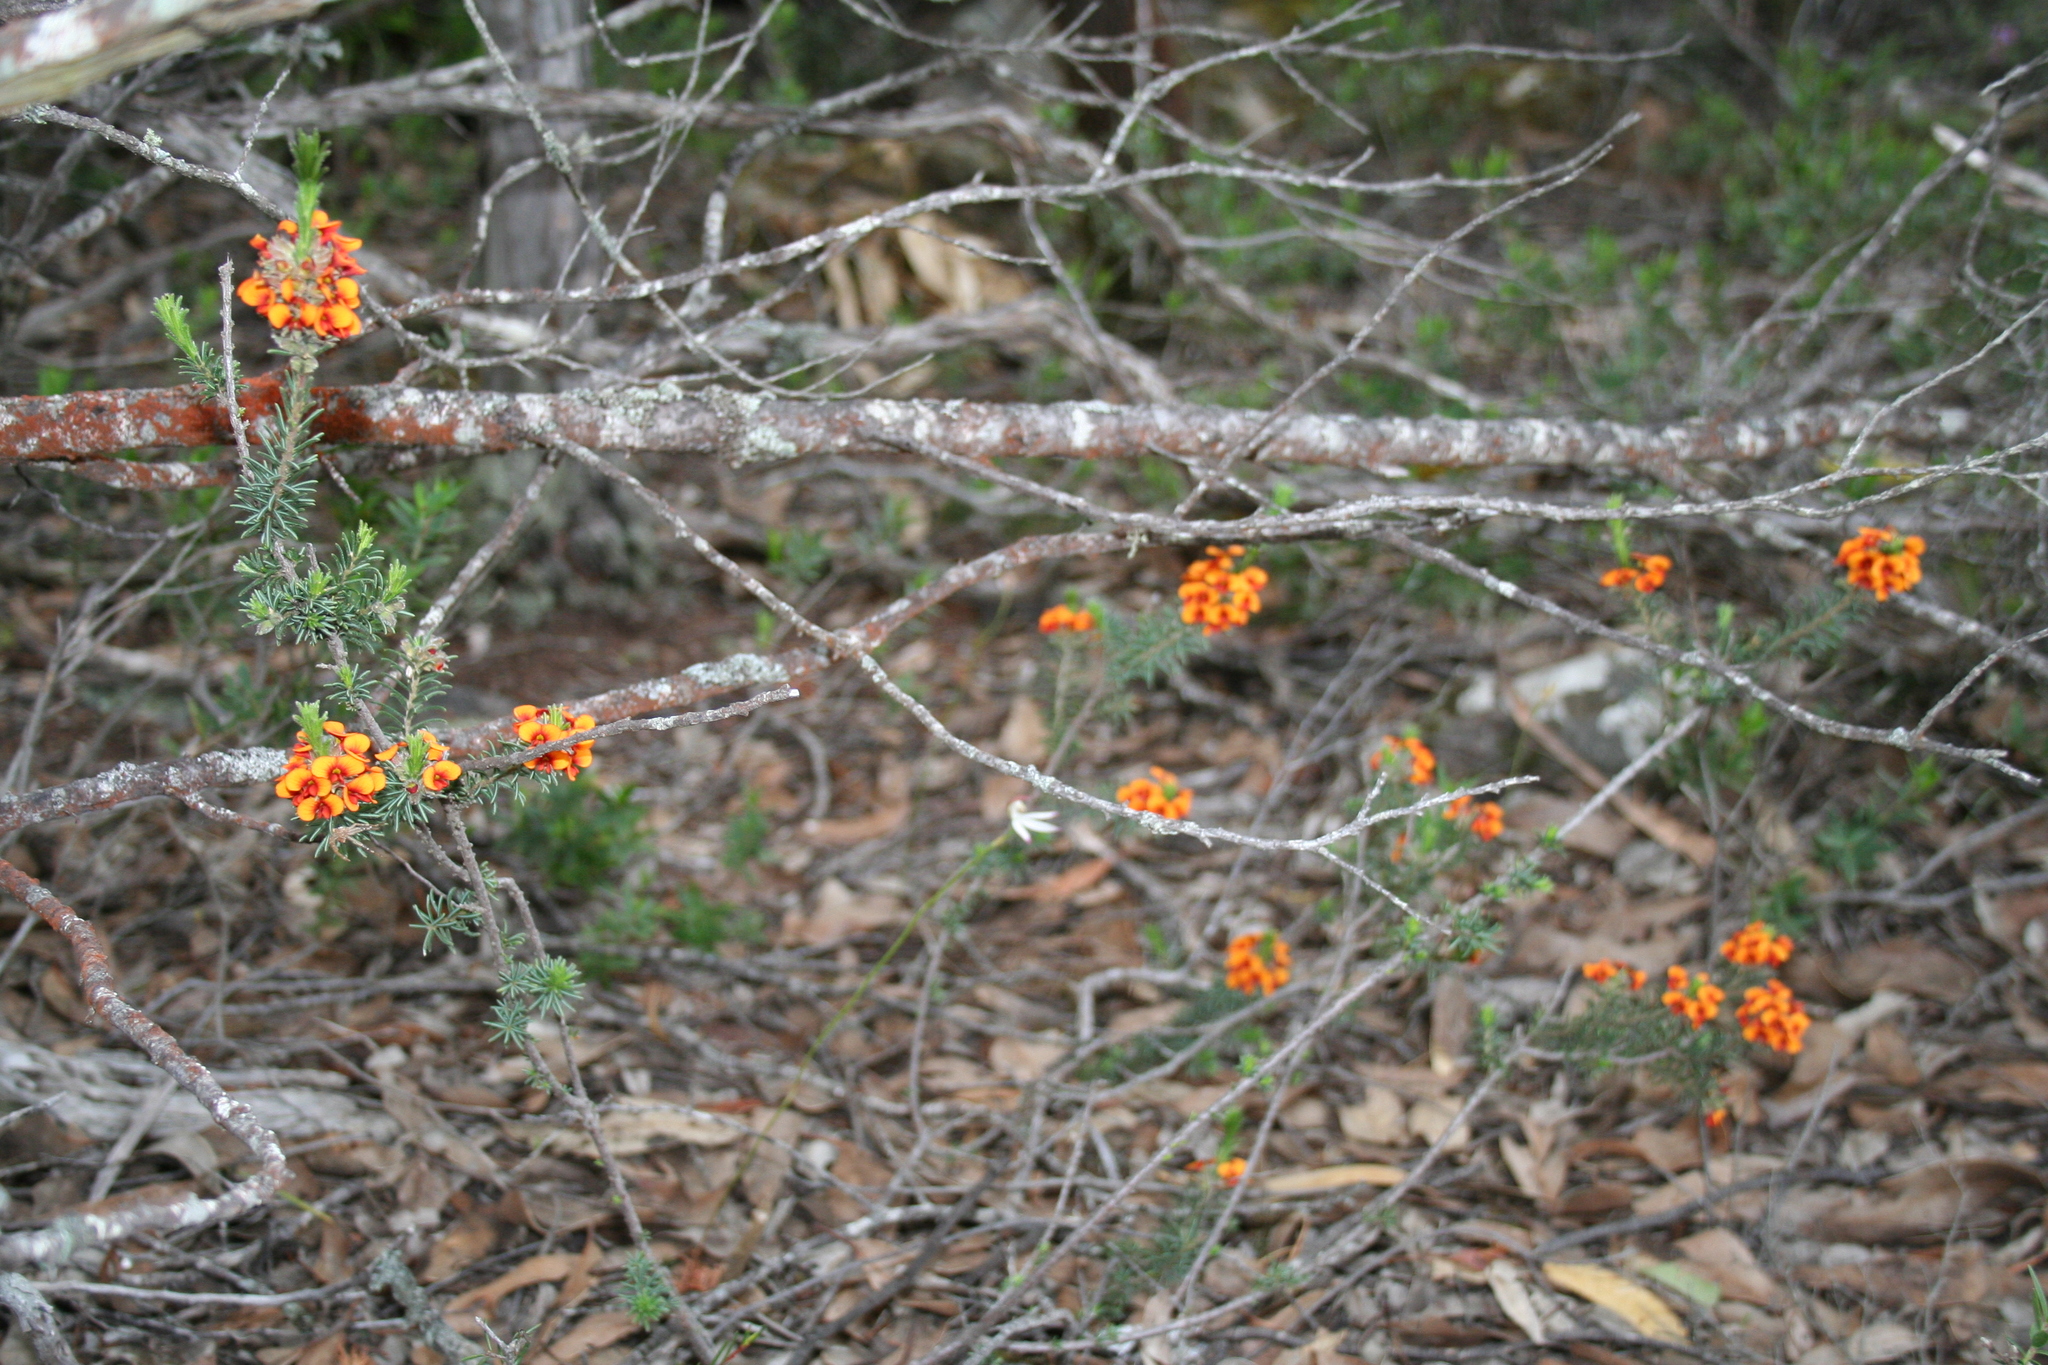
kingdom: Plantae
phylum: Tracheophyta
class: Magnoliopsida
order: Fabales
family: Fabaceae
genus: Dillwynia
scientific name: Dillwynia sericea
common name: Showy parrot-pea
